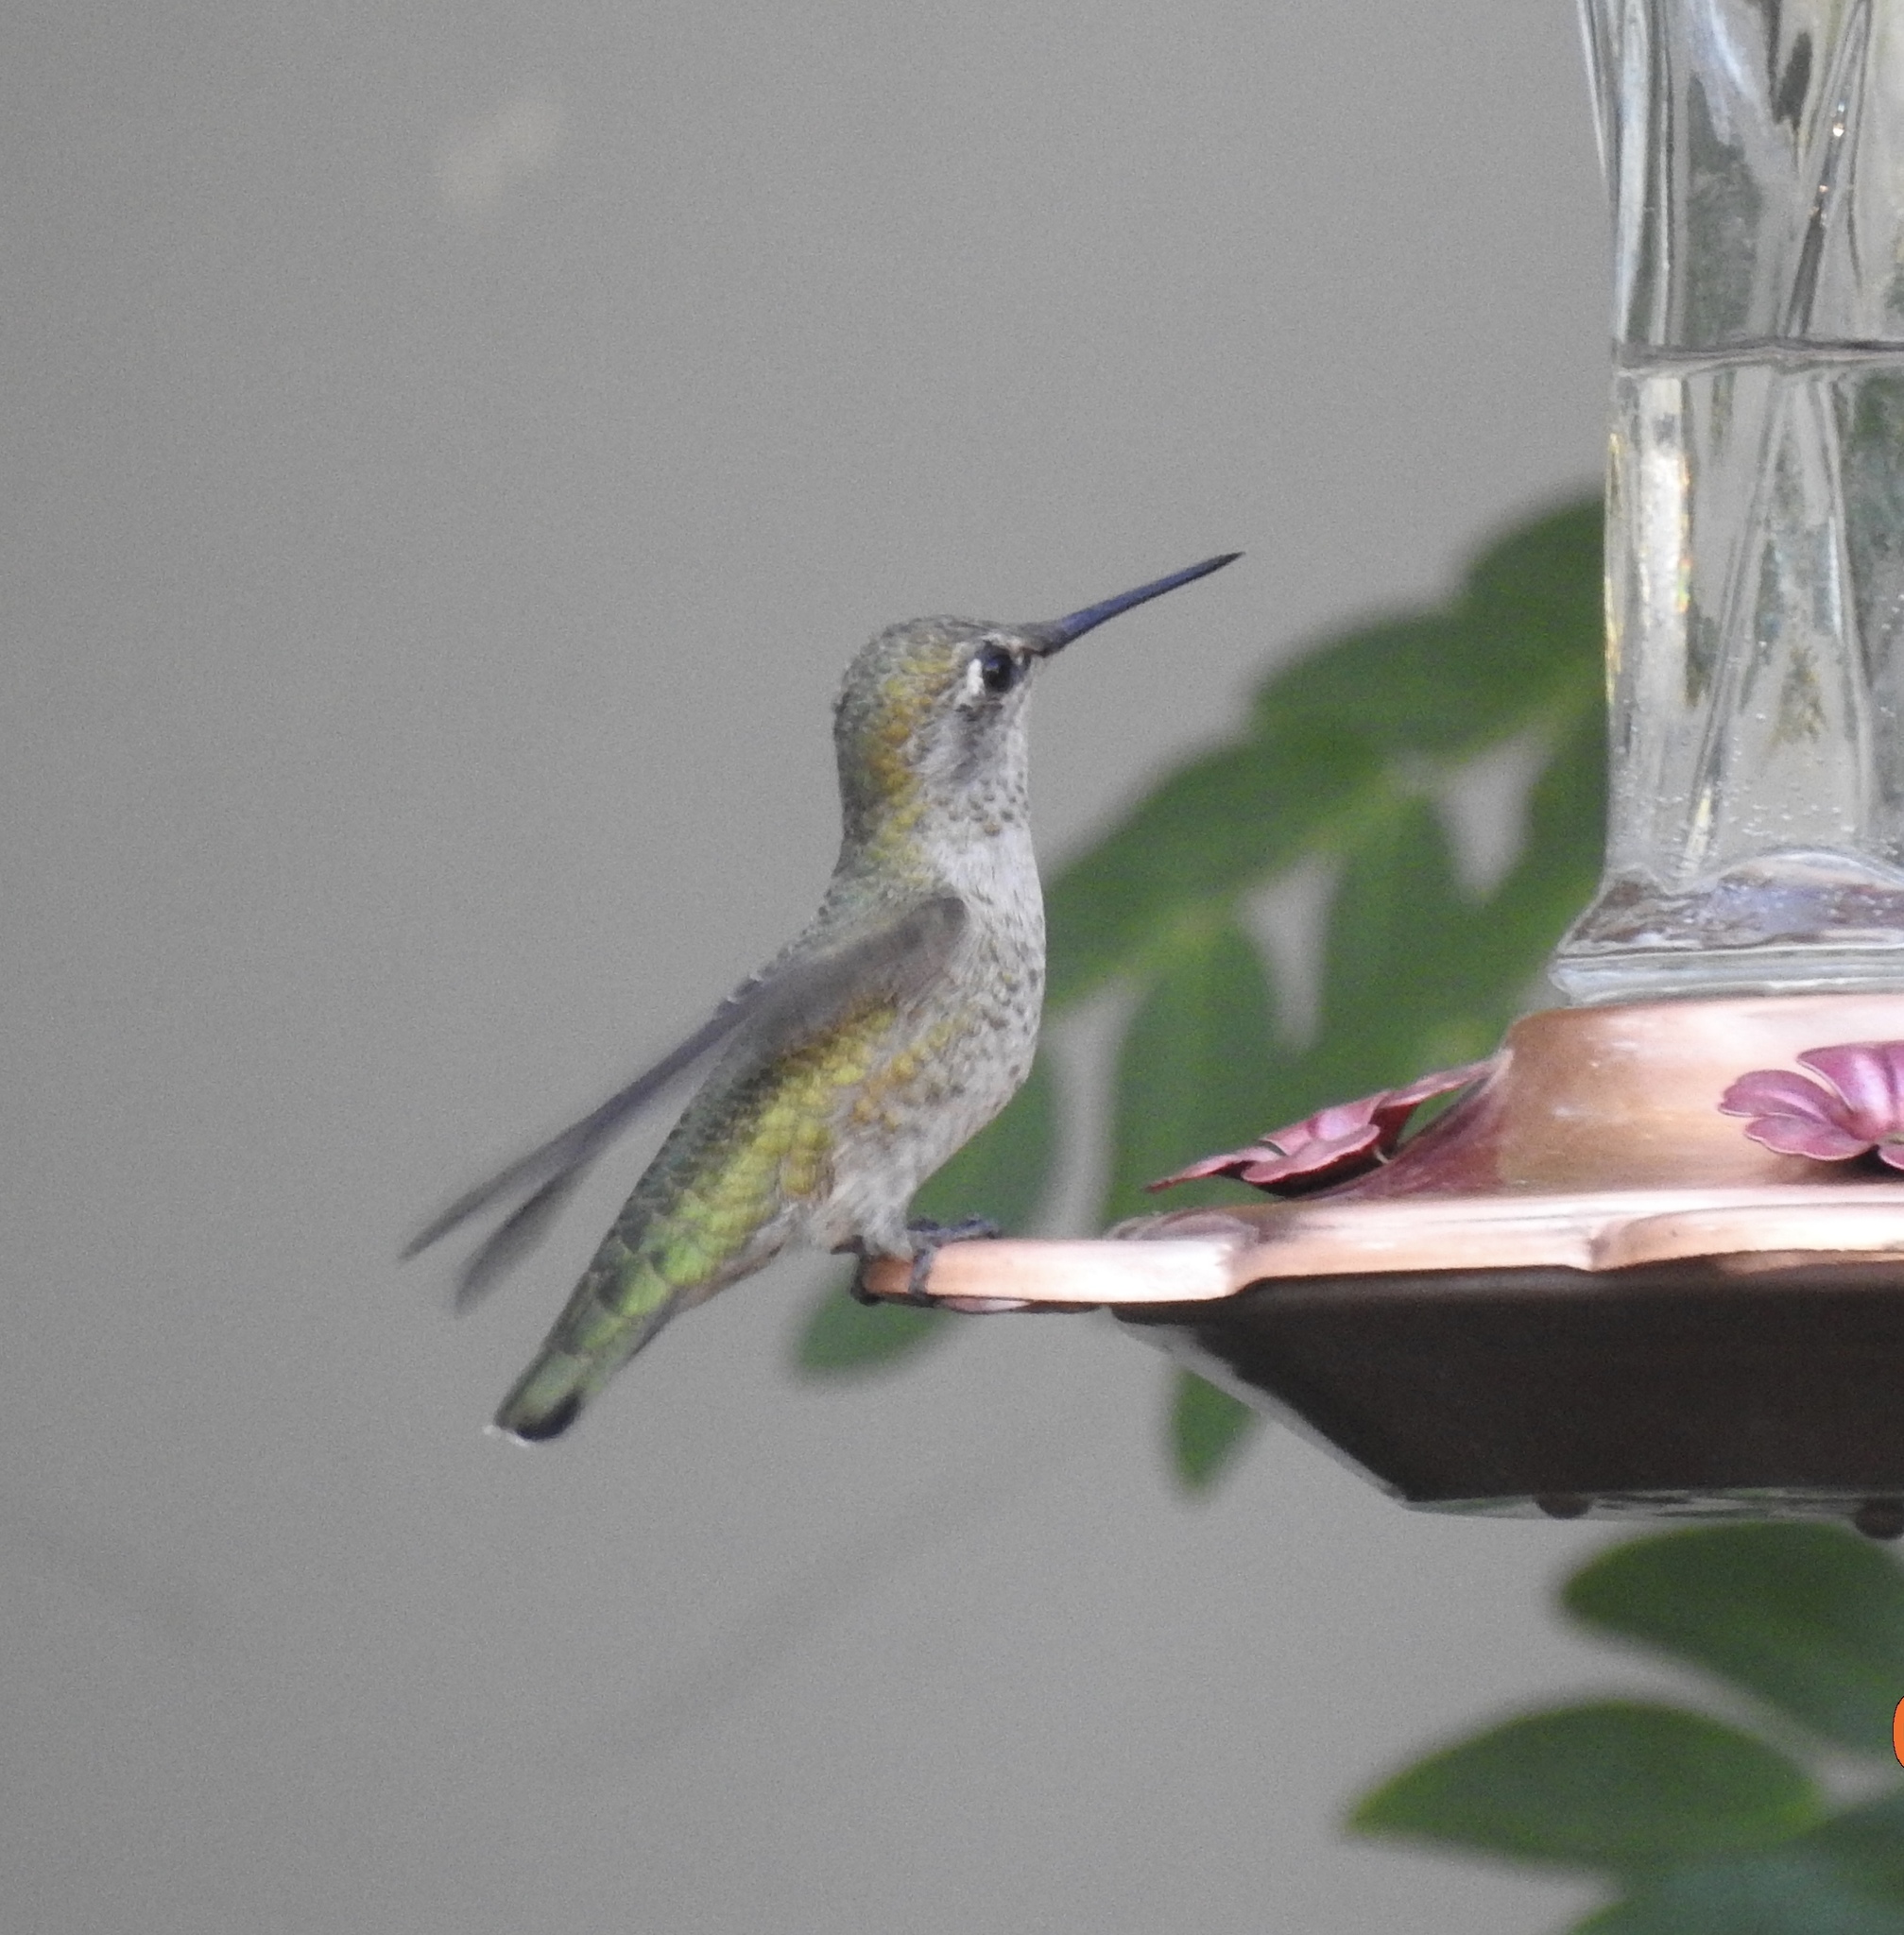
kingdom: Animalia
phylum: Chordata
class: Aves
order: Apodiformes
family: Trochilidae
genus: Calypte
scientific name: Calypte anna
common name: Anna's hummingbird
